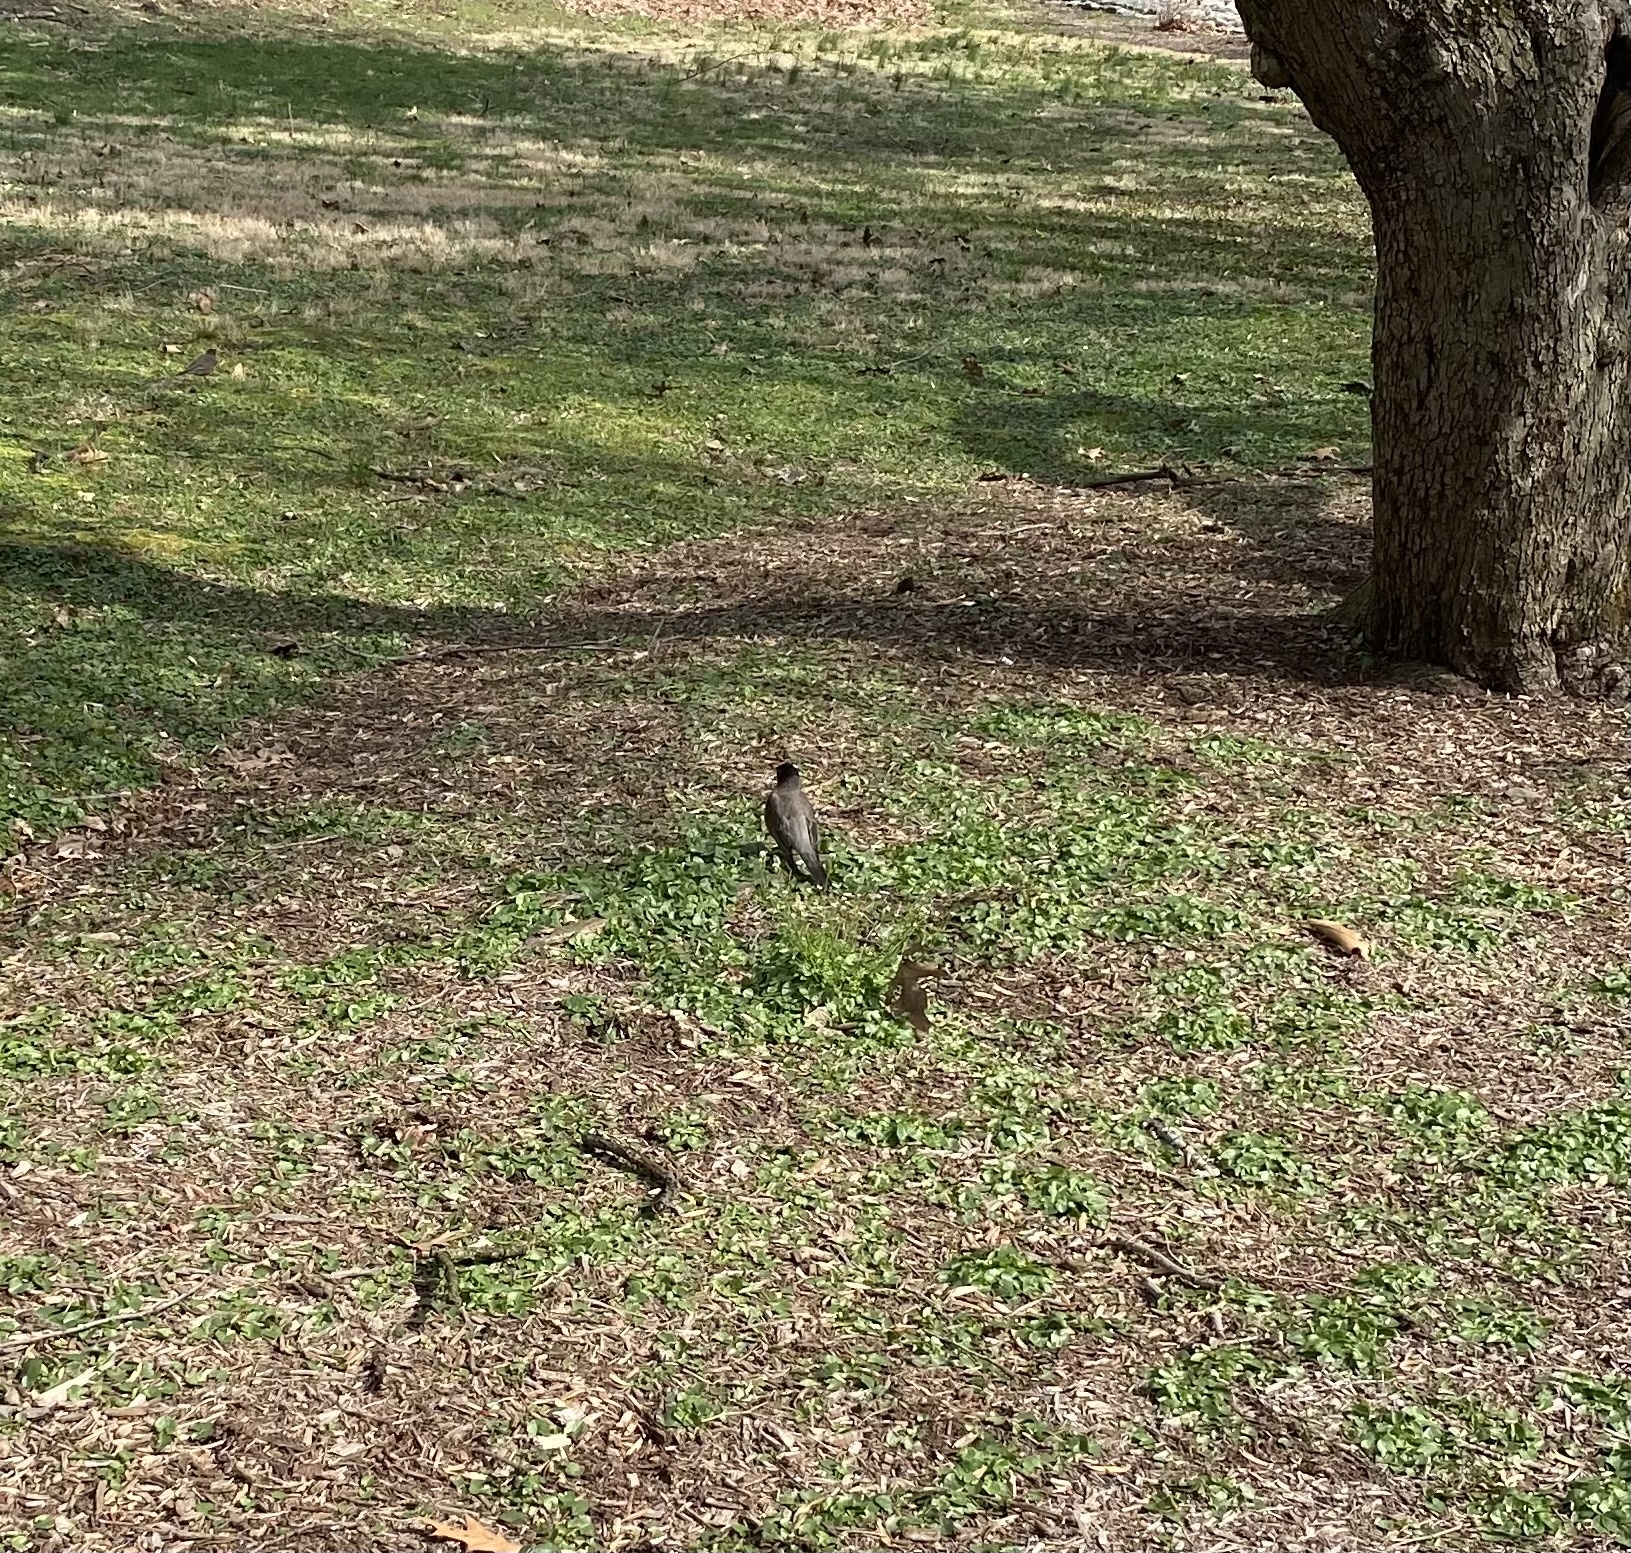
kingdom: Animalia
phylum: Chordata
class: Aves
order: Passeriformes
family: Turdidae
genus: Turdus
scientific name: Turdus migratorius
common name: American robin
